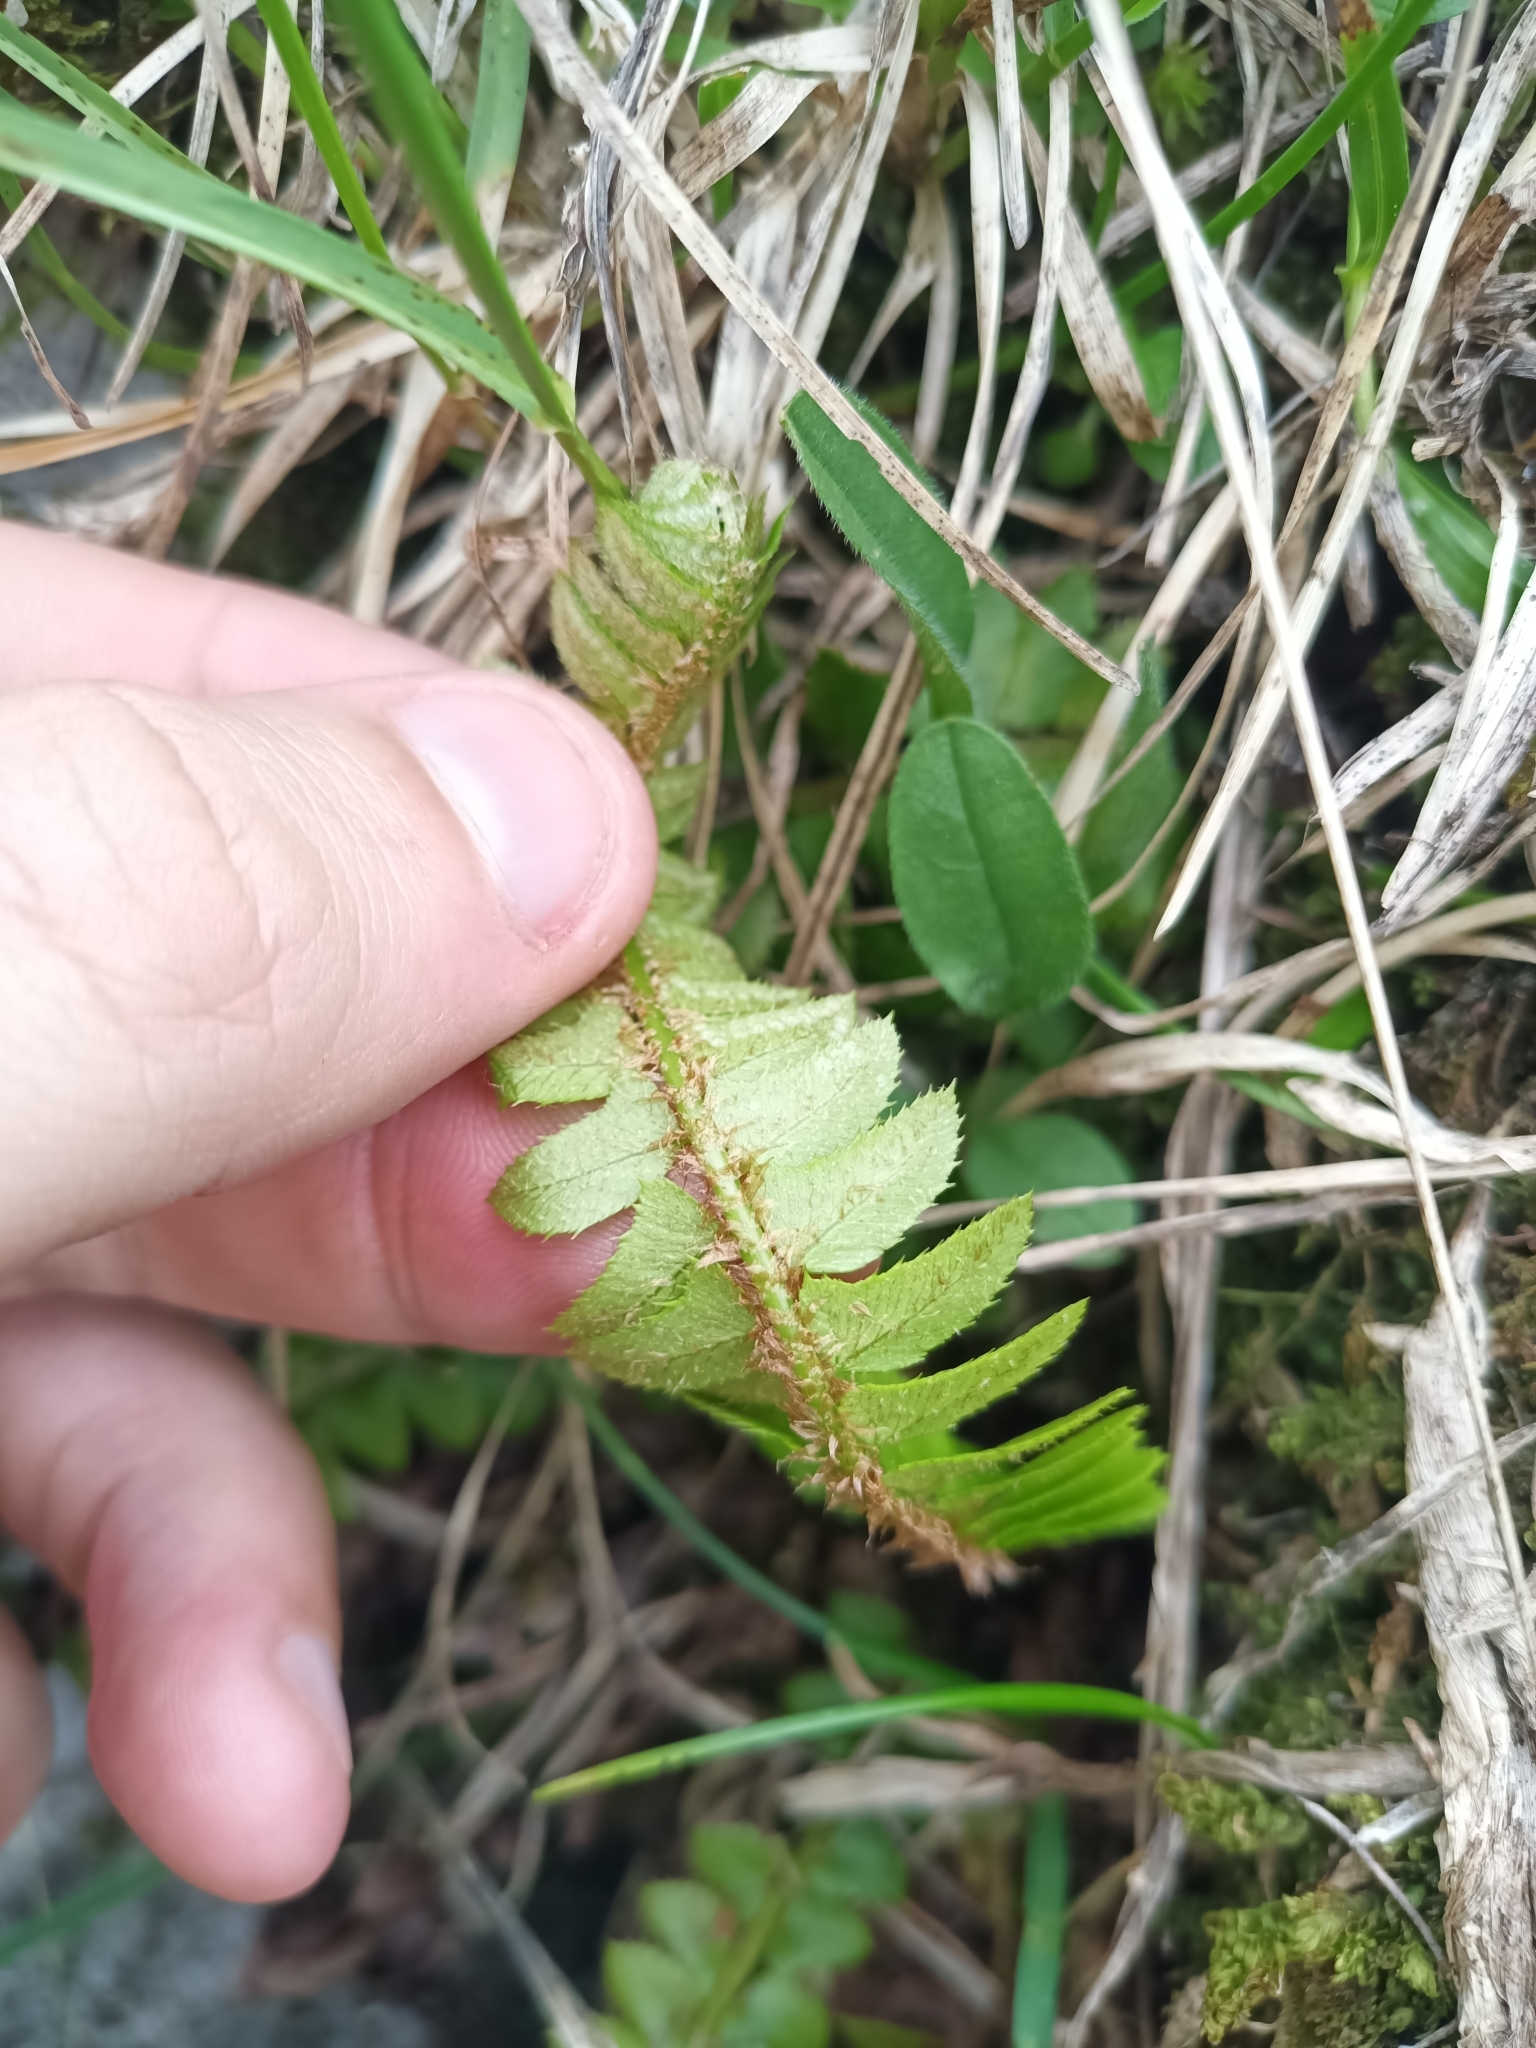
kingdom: Plantae
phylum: Tracheophyta
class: Polypodiopsida
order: Polypodiales
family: Dryopteridaceae
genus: Polystichum
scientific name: Polystichum lonchitis
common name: Holly fern
